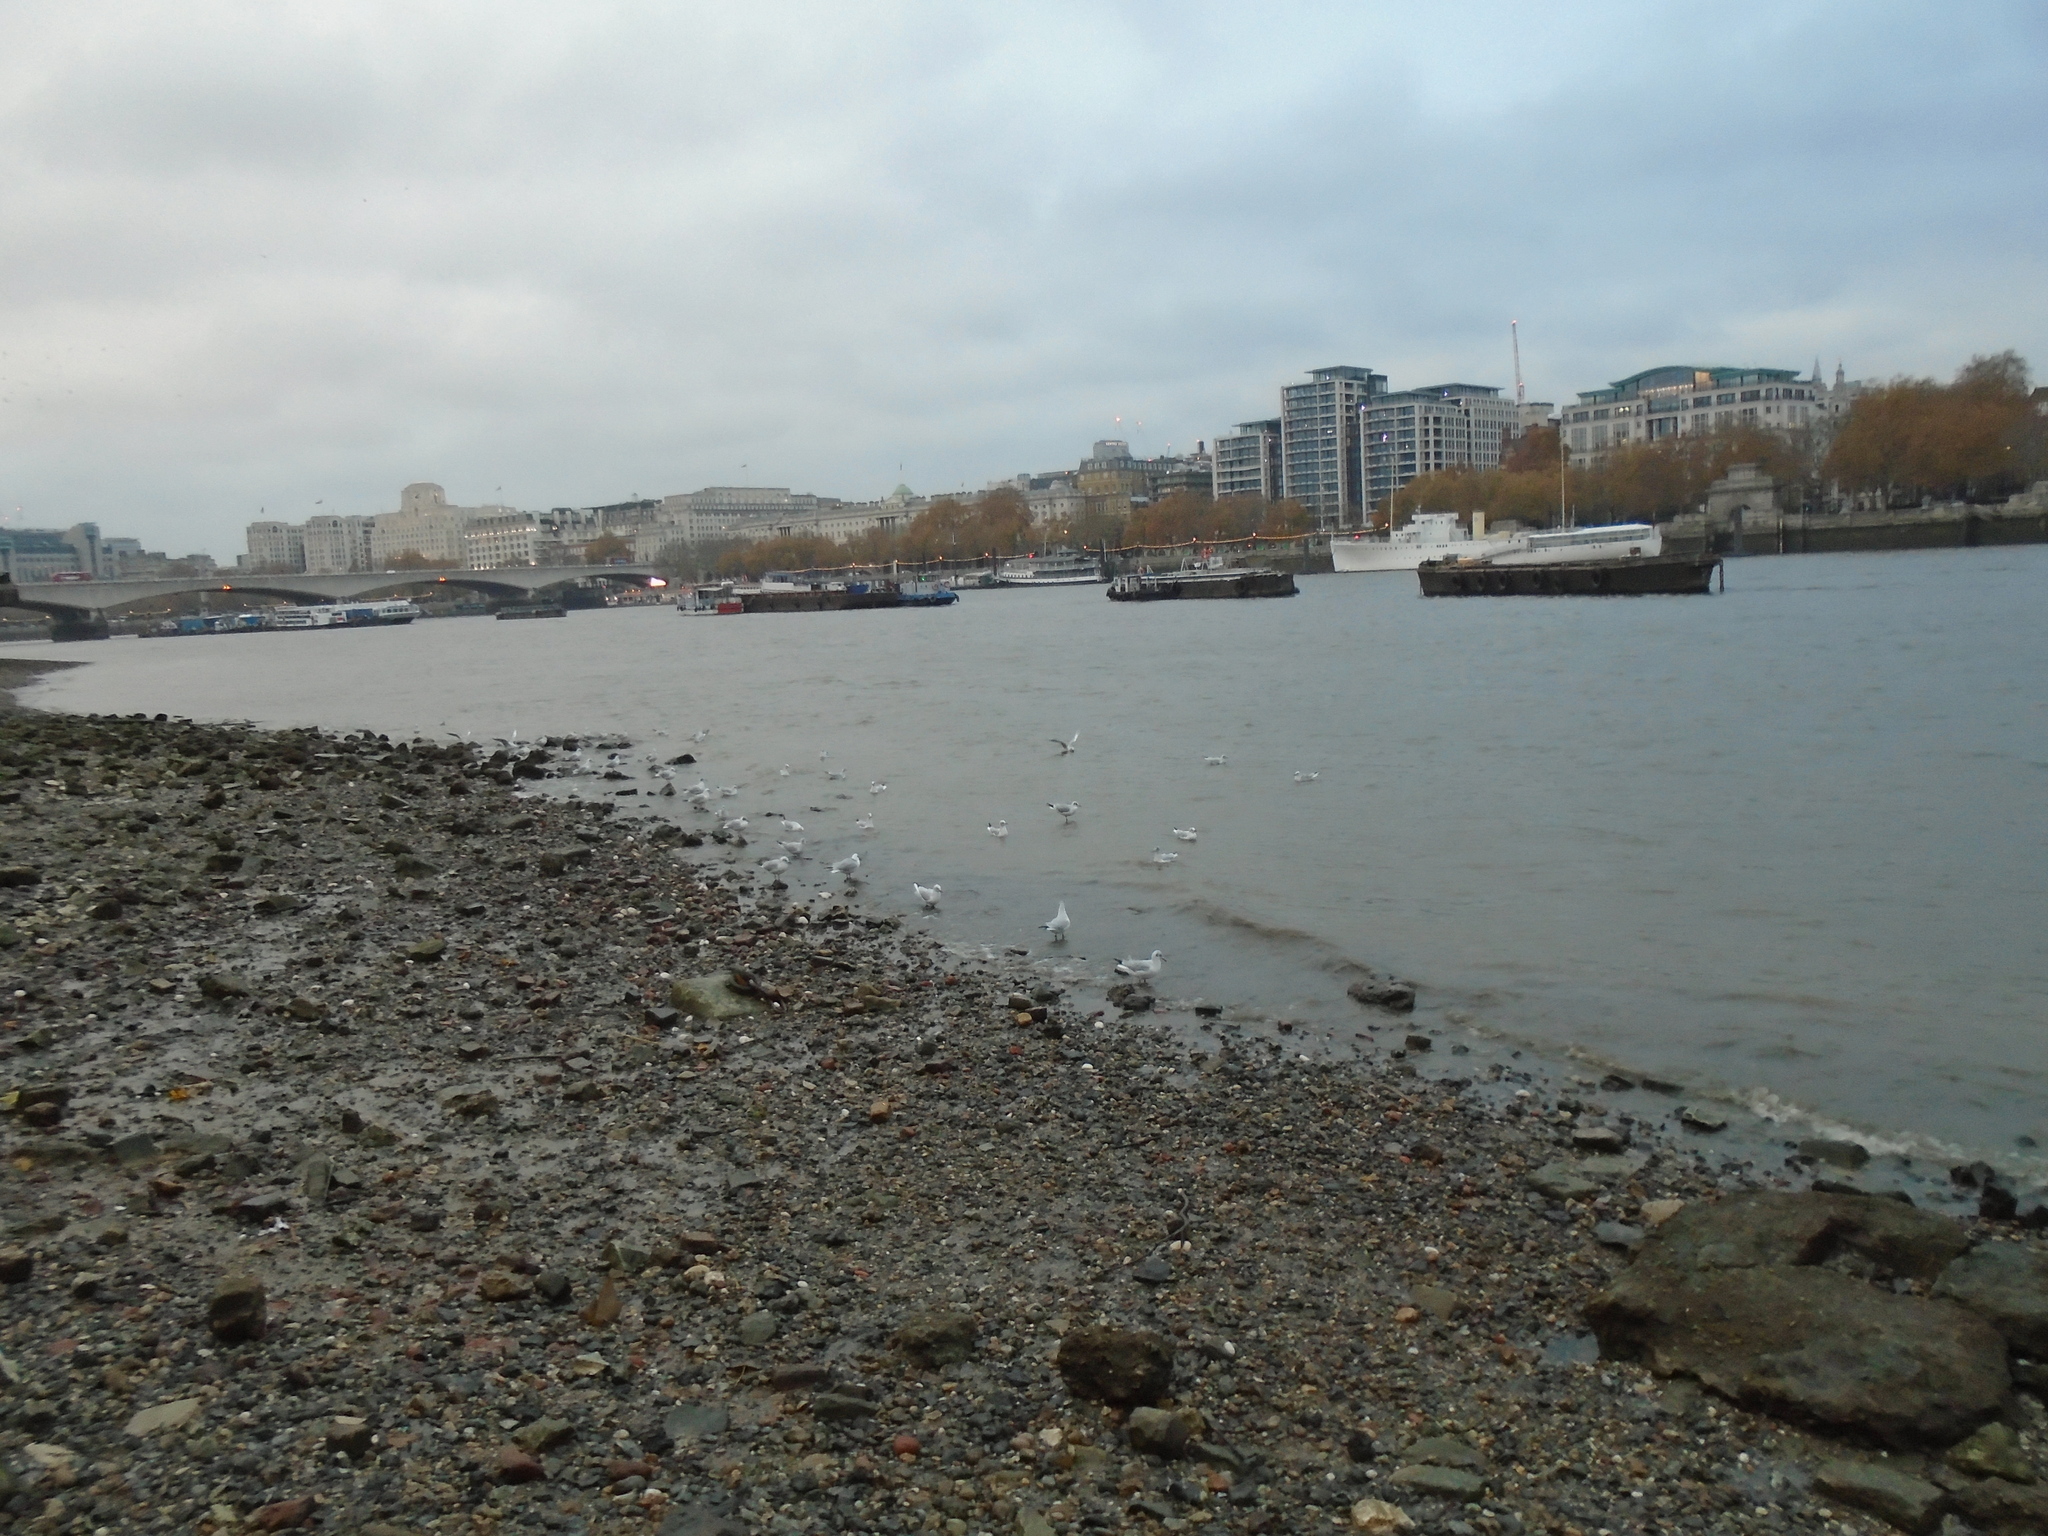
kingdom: Animalia
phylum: Chordata
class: Aves
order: Charadriiformes
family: Laridae
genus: Chroicocephalus
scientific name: Chroicocephalus ridibundus
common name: Black-headed gull
